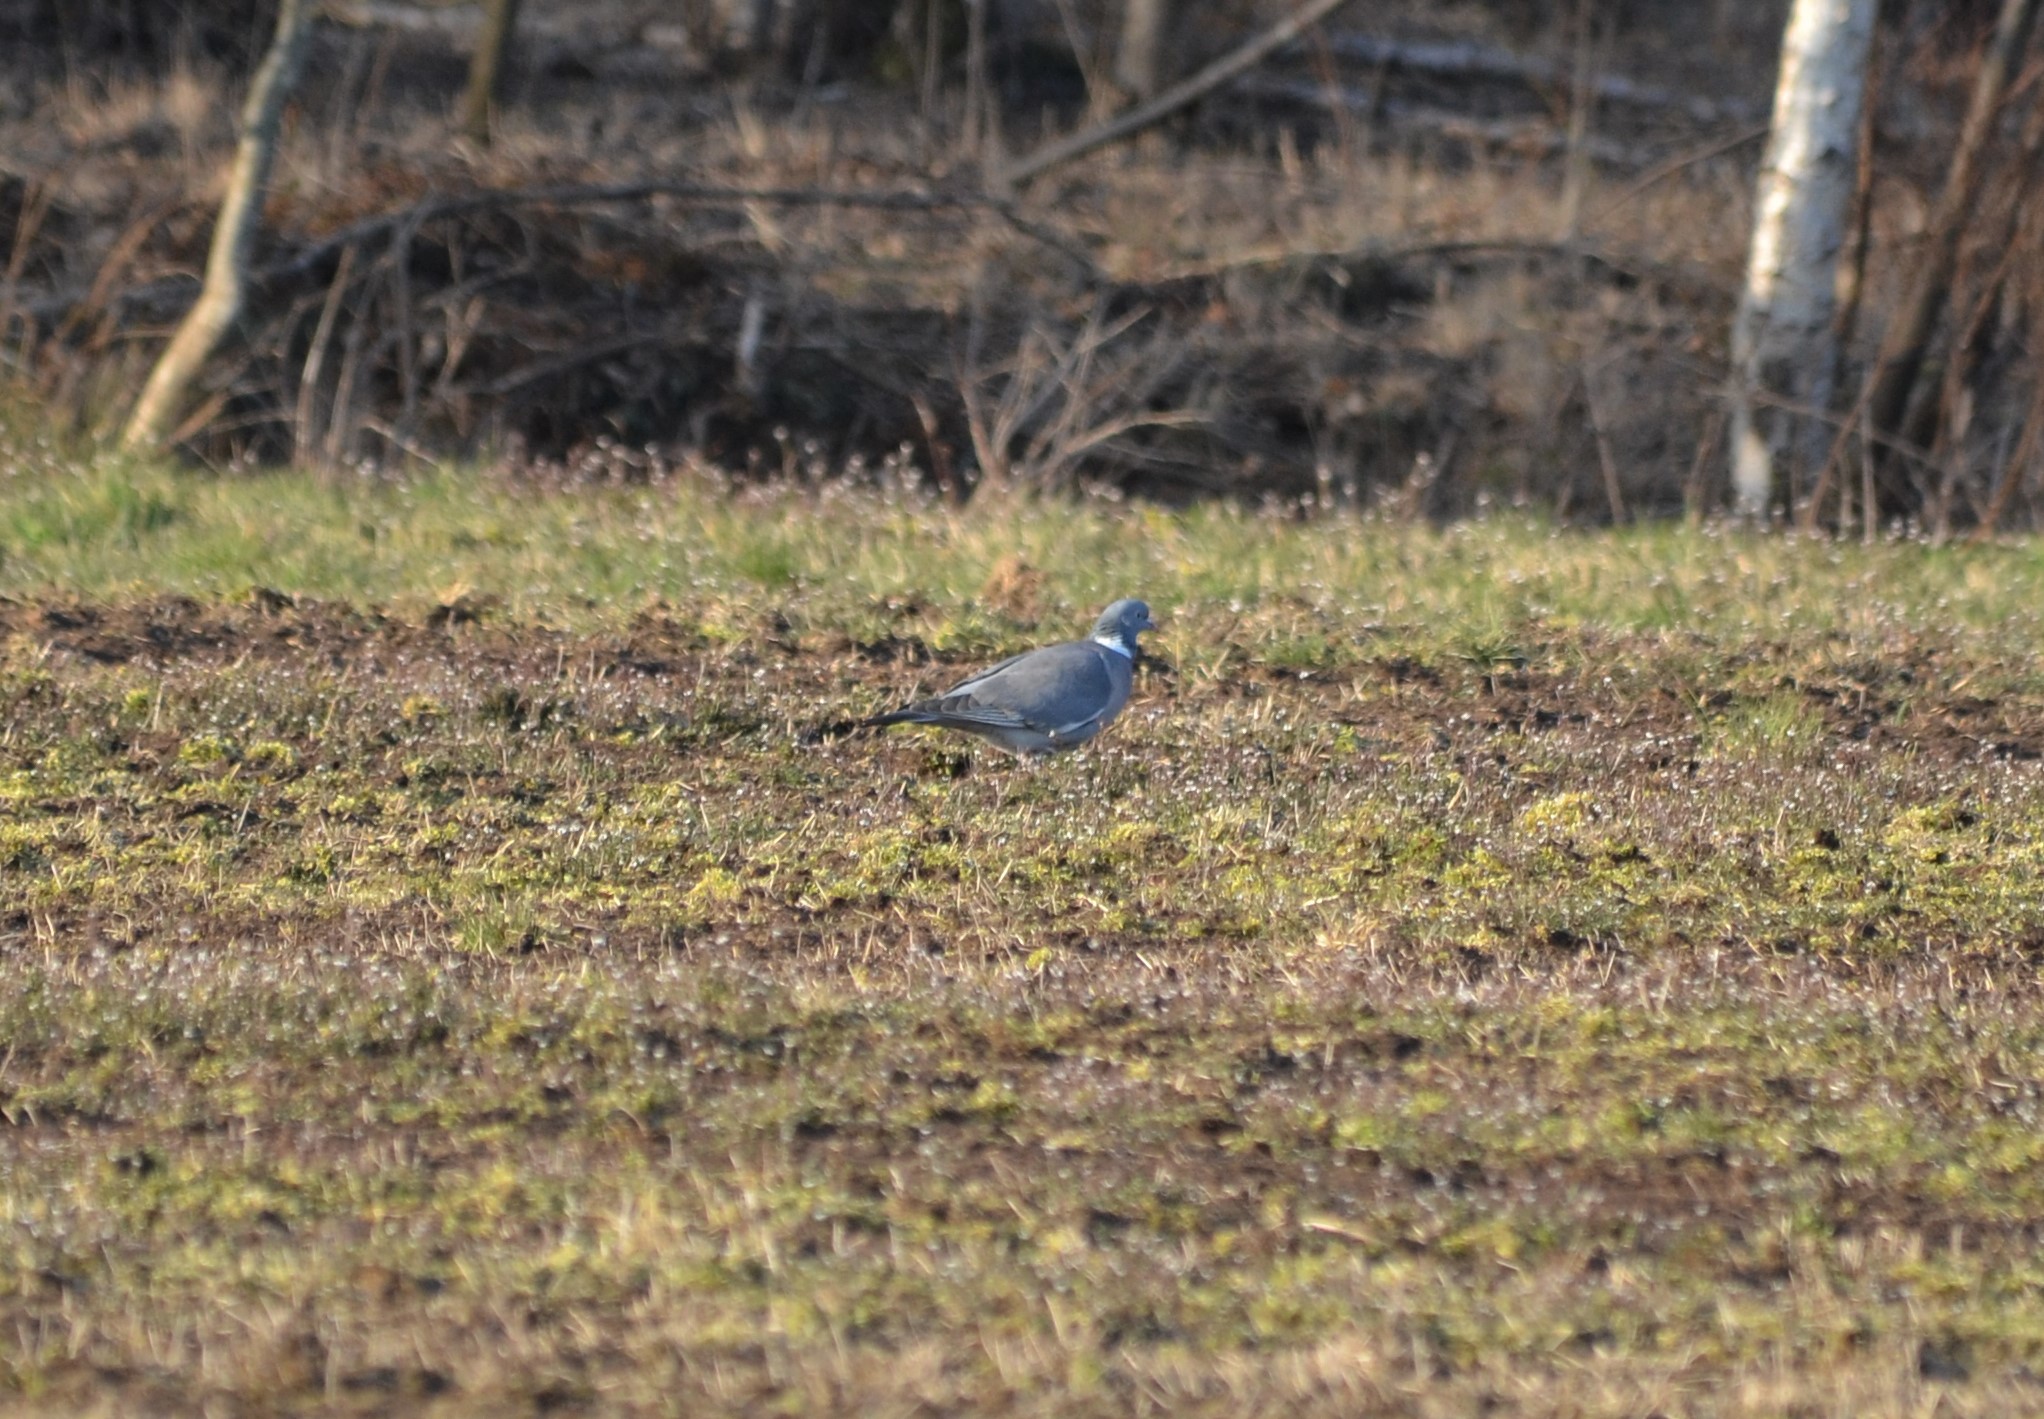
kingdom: Animalia
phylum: Chordata
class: Aves
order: Columbiformes
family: Columbidae
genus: Columba
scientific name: Columba palumbus
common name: Common wood pigeon
